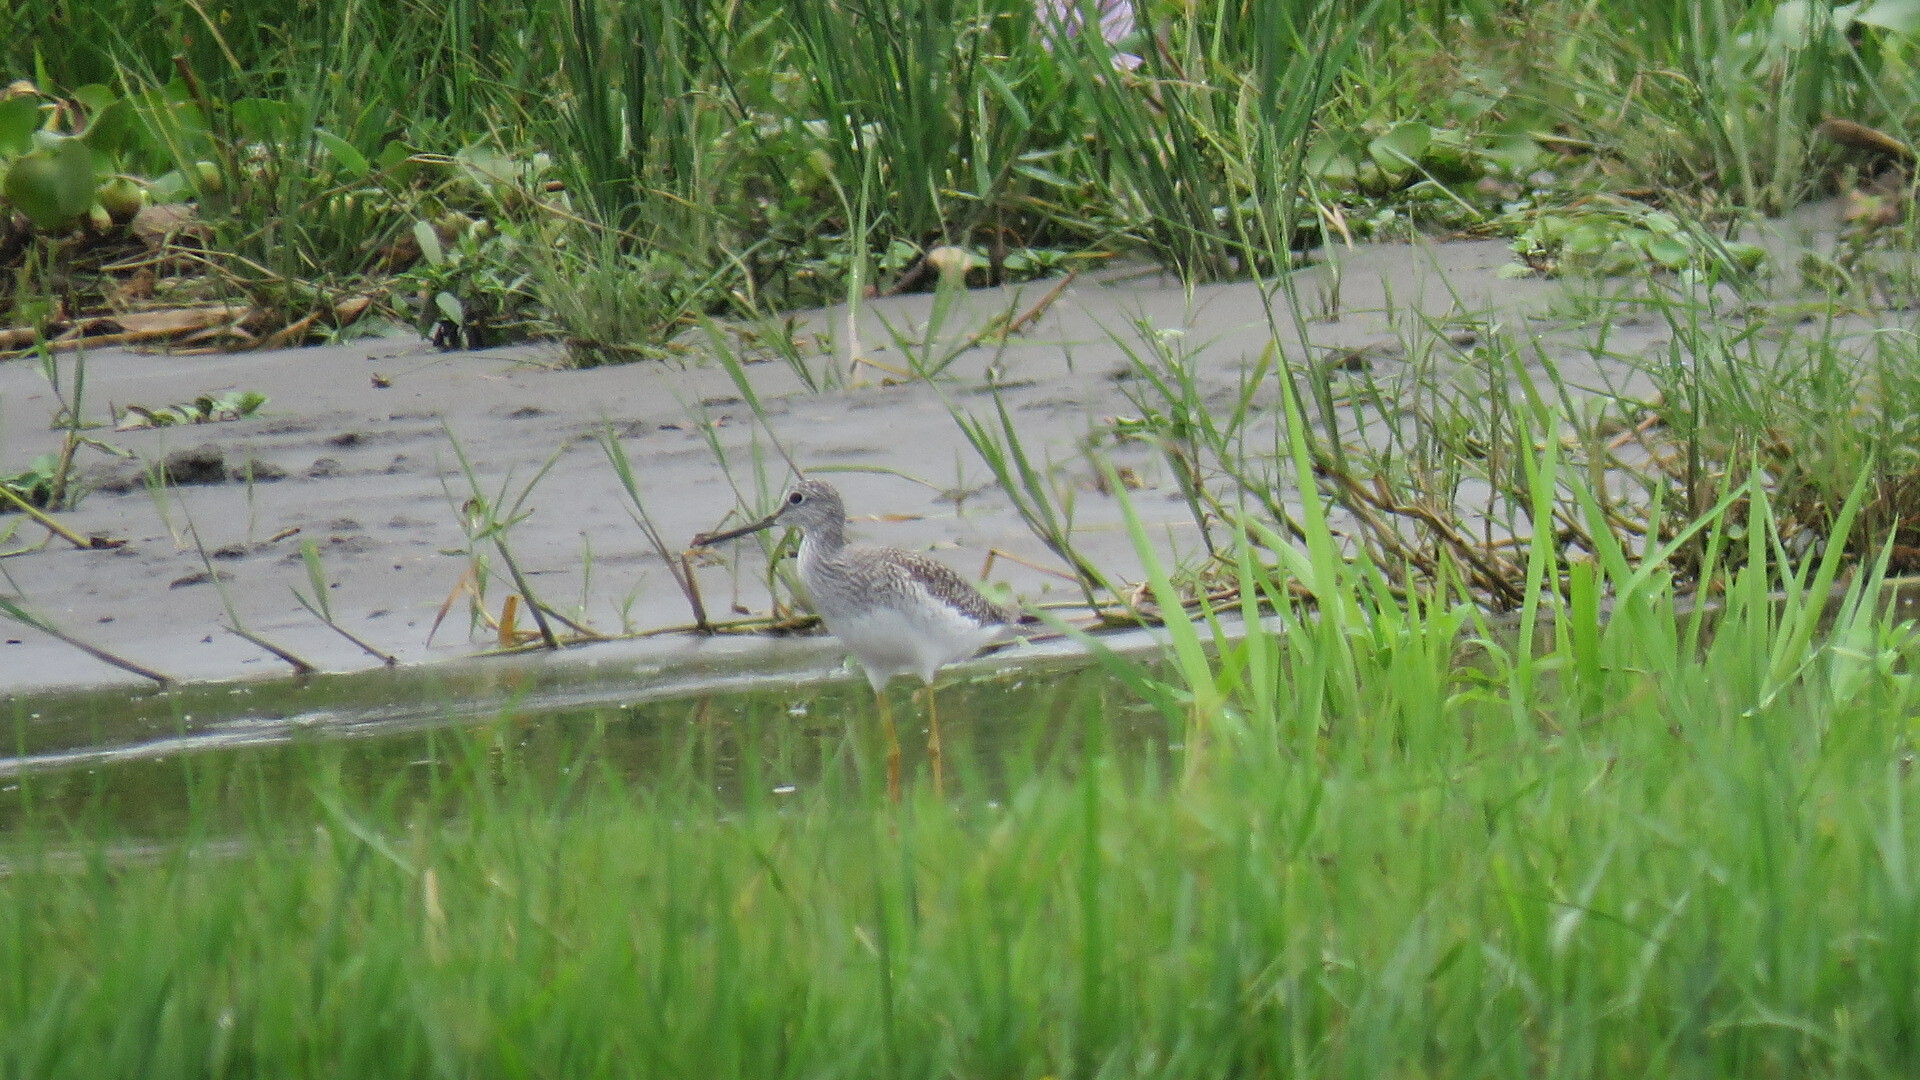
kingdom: Animalia
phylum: Chordata
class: Aves
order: Charadriiformes
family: Scolopacidae
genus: Tringa
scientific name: Tringa melanoleuca
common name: Greater yellowlegs
